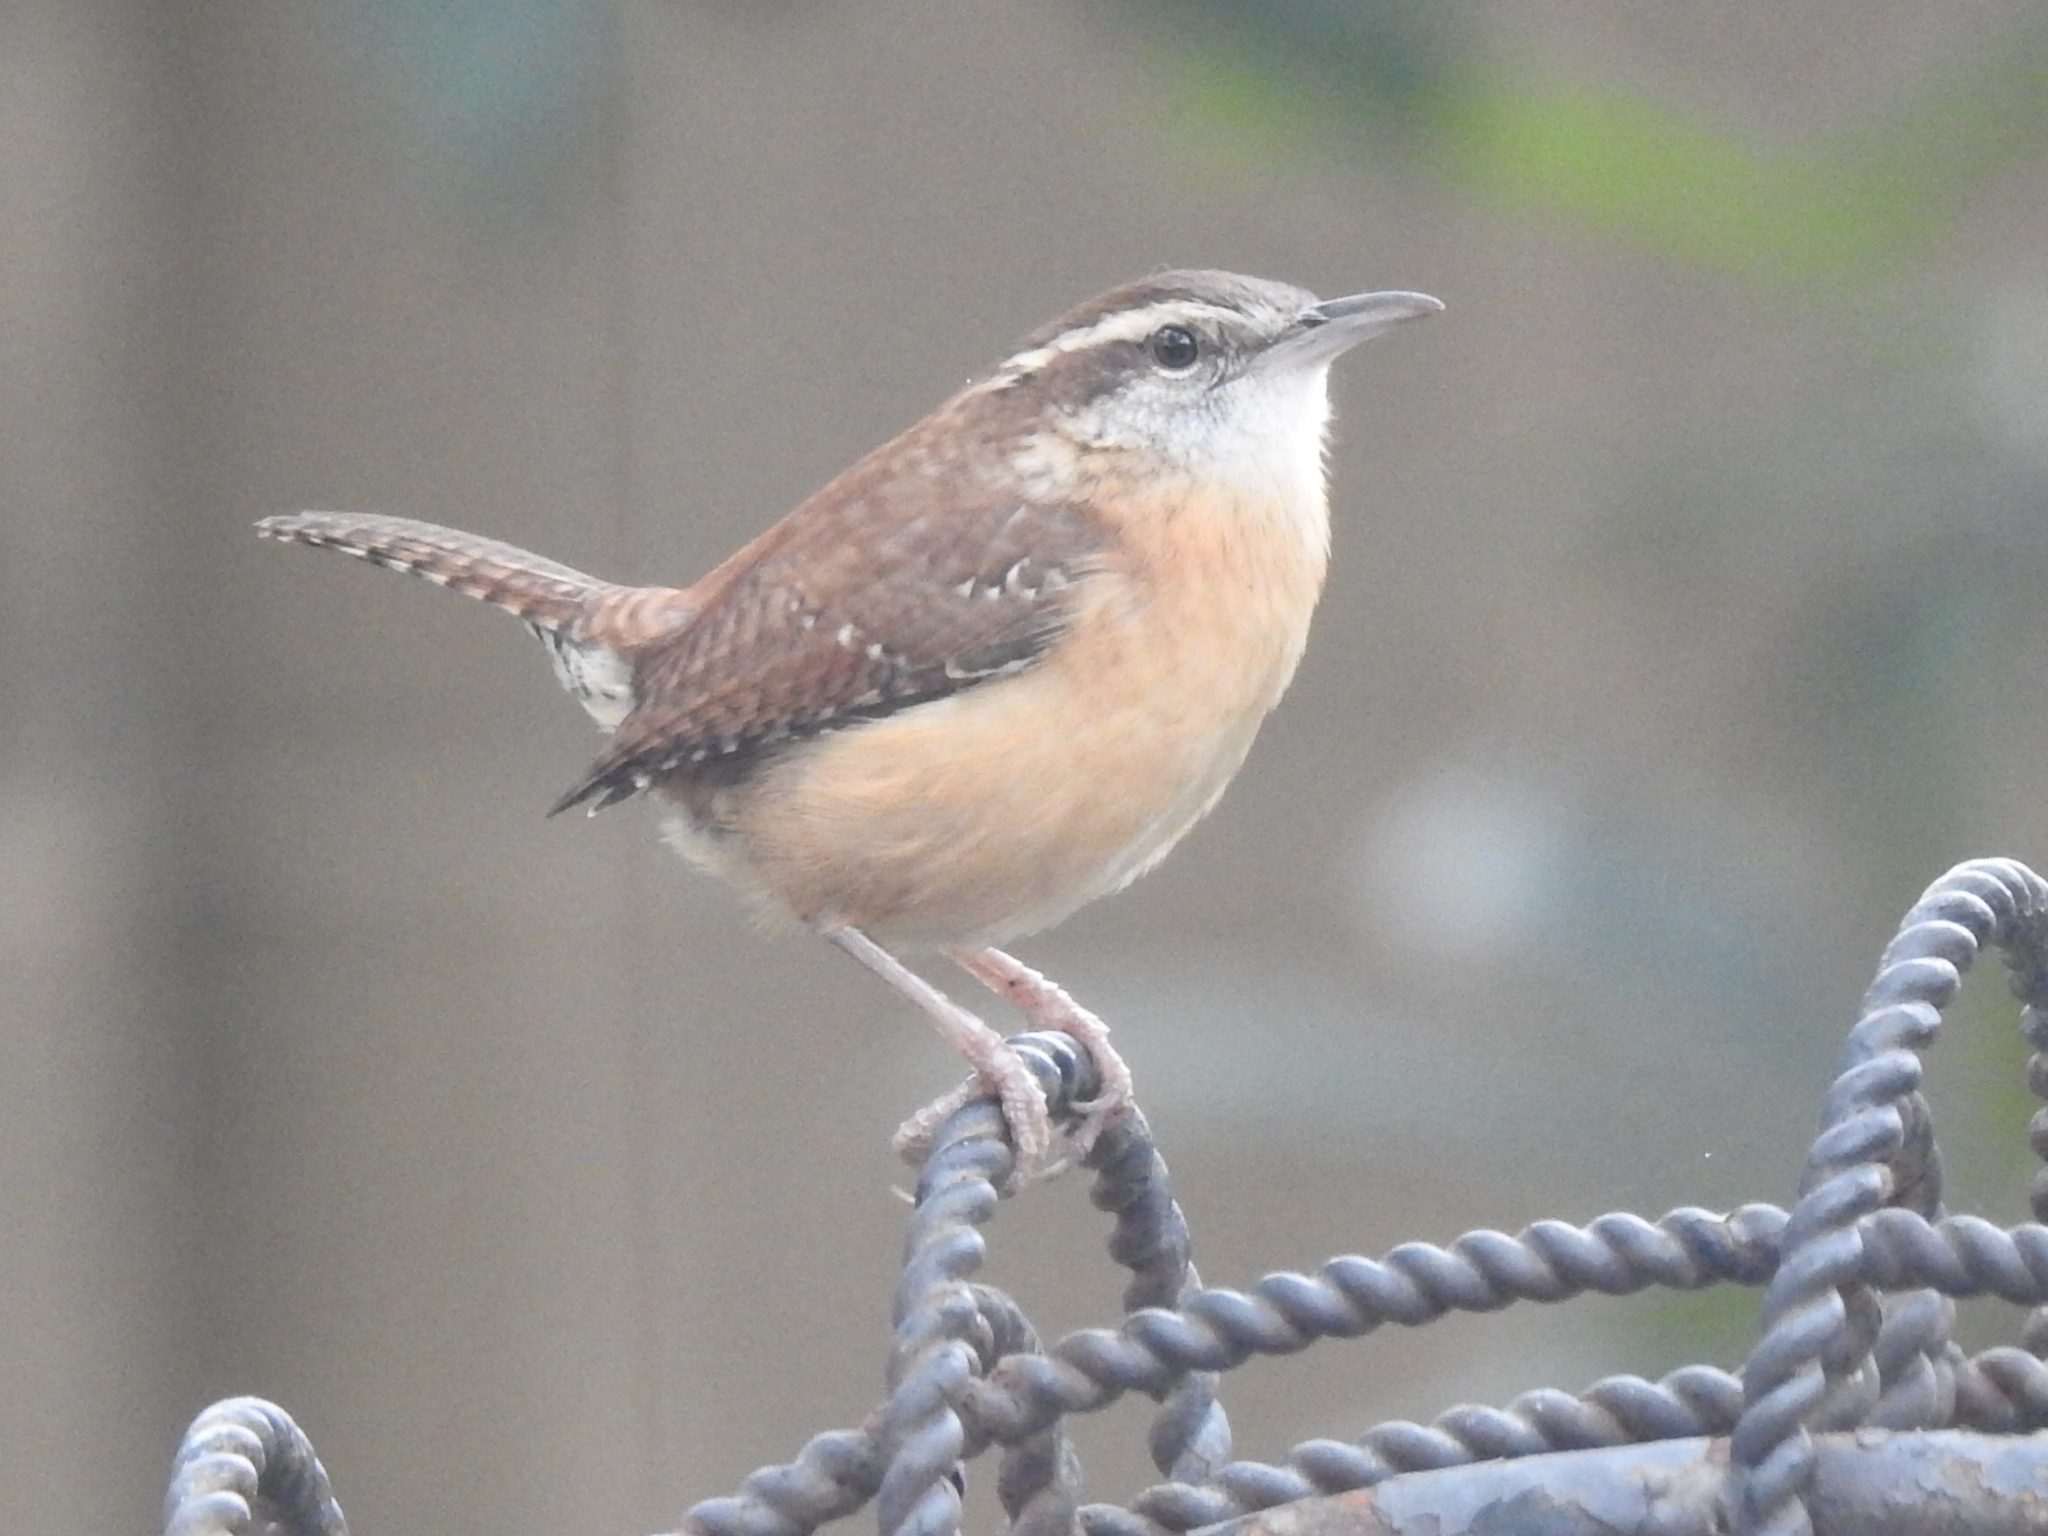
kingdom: Animalia
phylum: Chordata
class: Aves
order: Passeriformes
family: Troglodytidae
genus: Thryothorus
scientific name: Thryothorus ludovicianus
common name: Carolina wren
